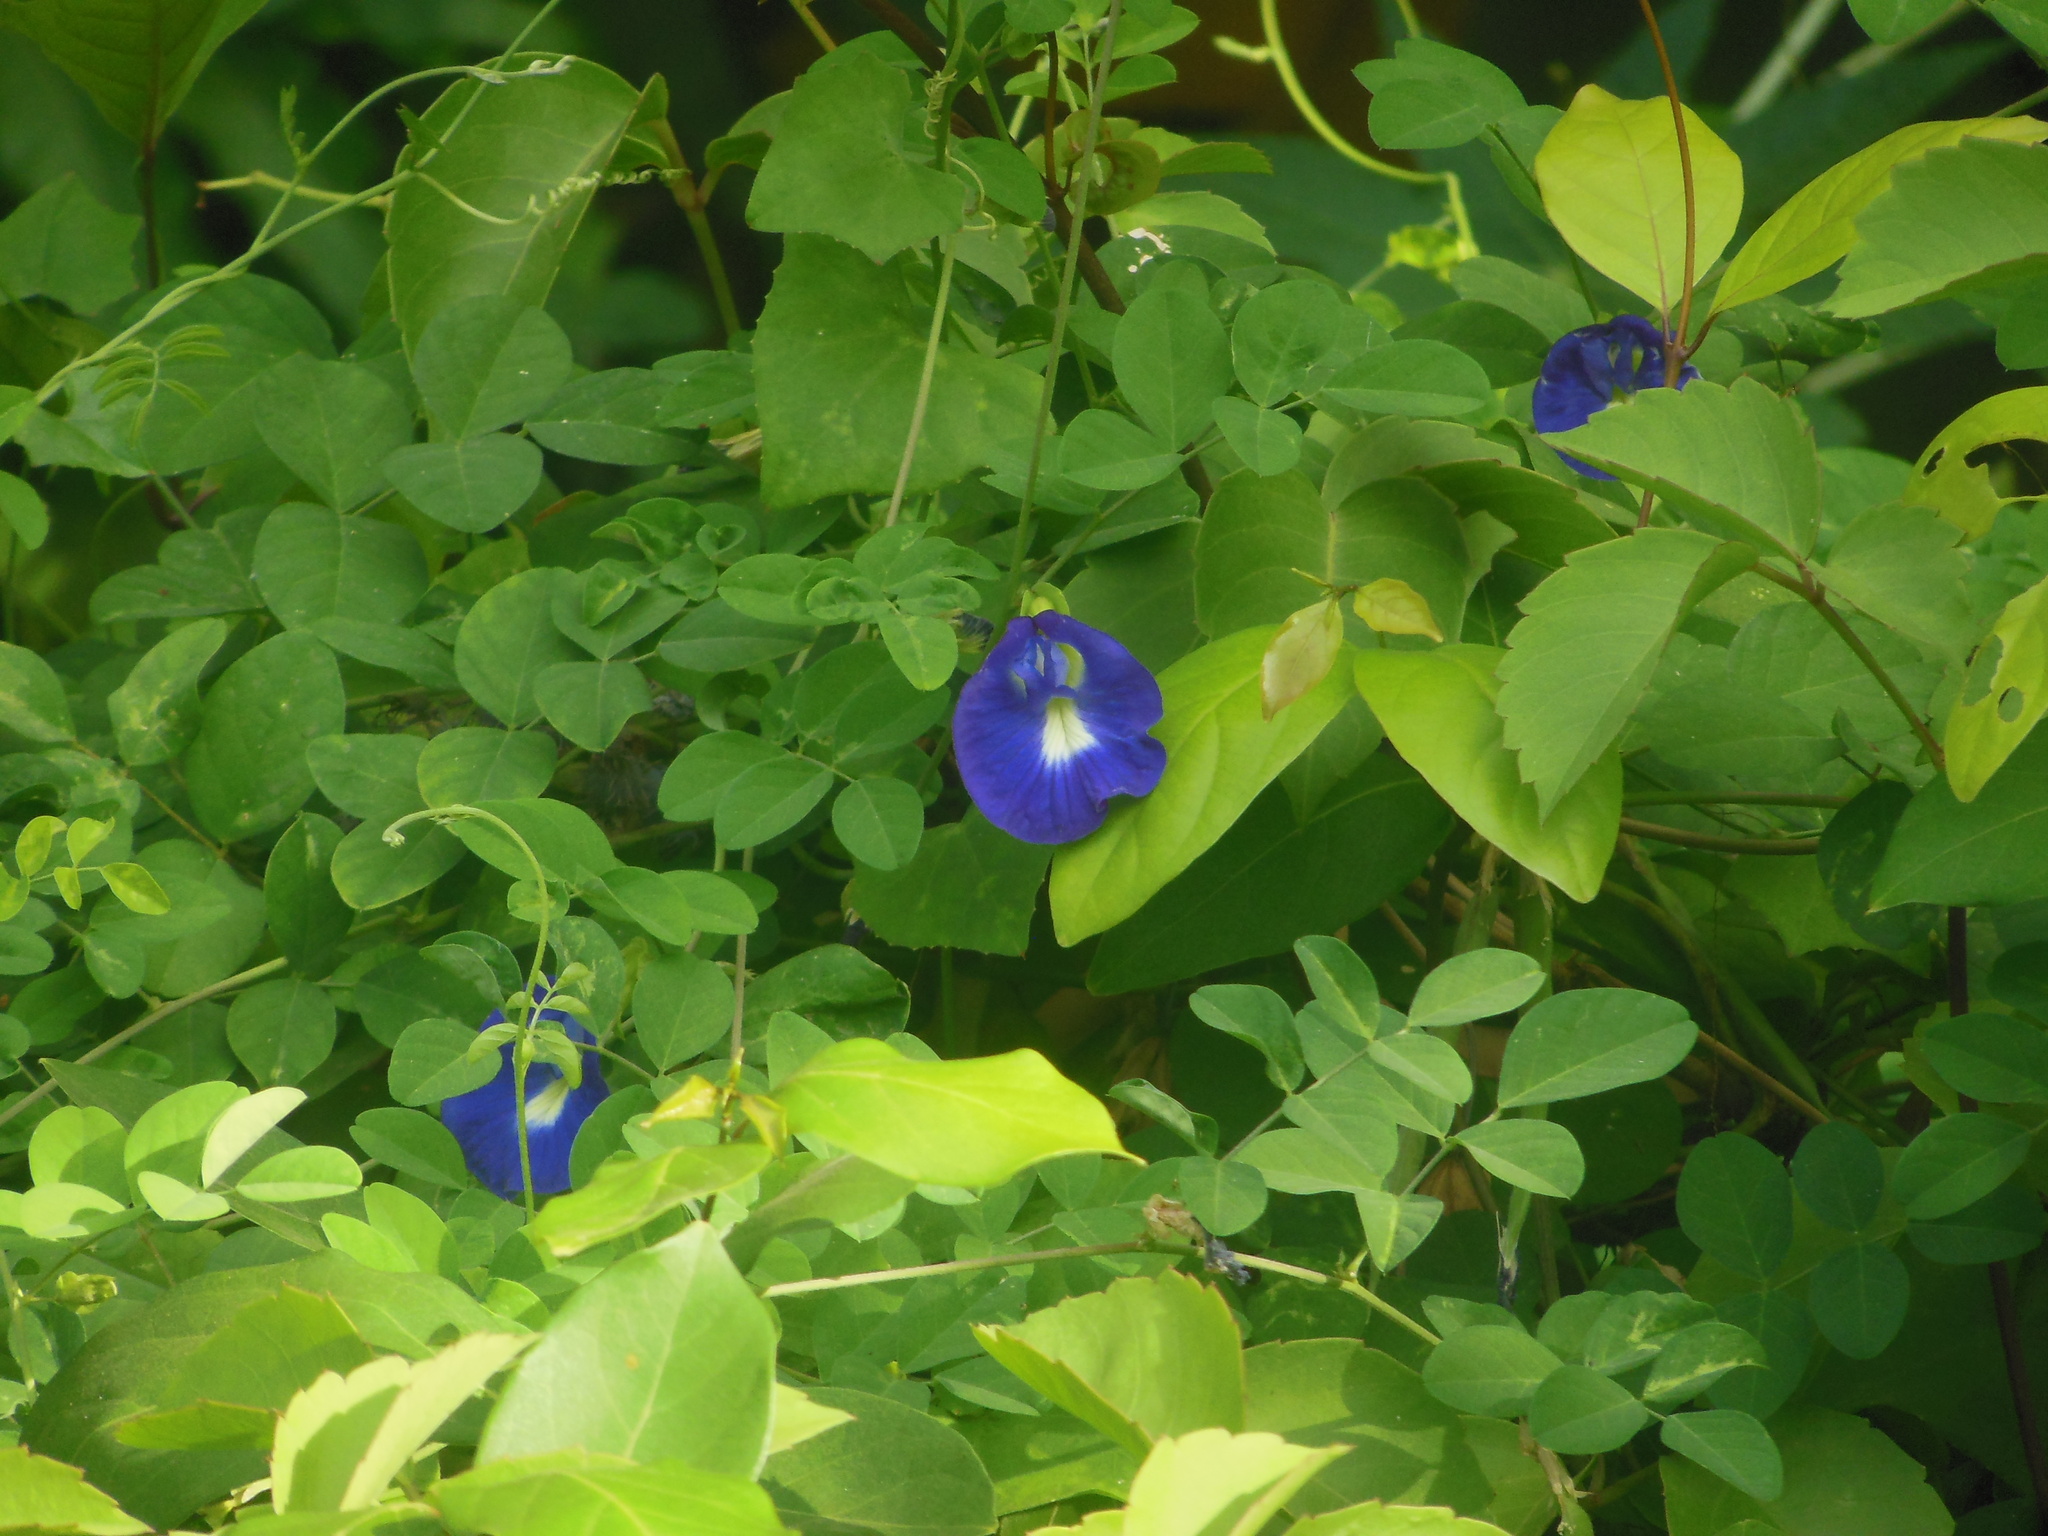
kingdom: Plantae
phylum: Tracheophyta
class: Magnoliopsida
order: Fabales
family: Fabaceae
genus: Clitoria
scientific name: Clitoria ternatea
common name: Asian pigeonwings
